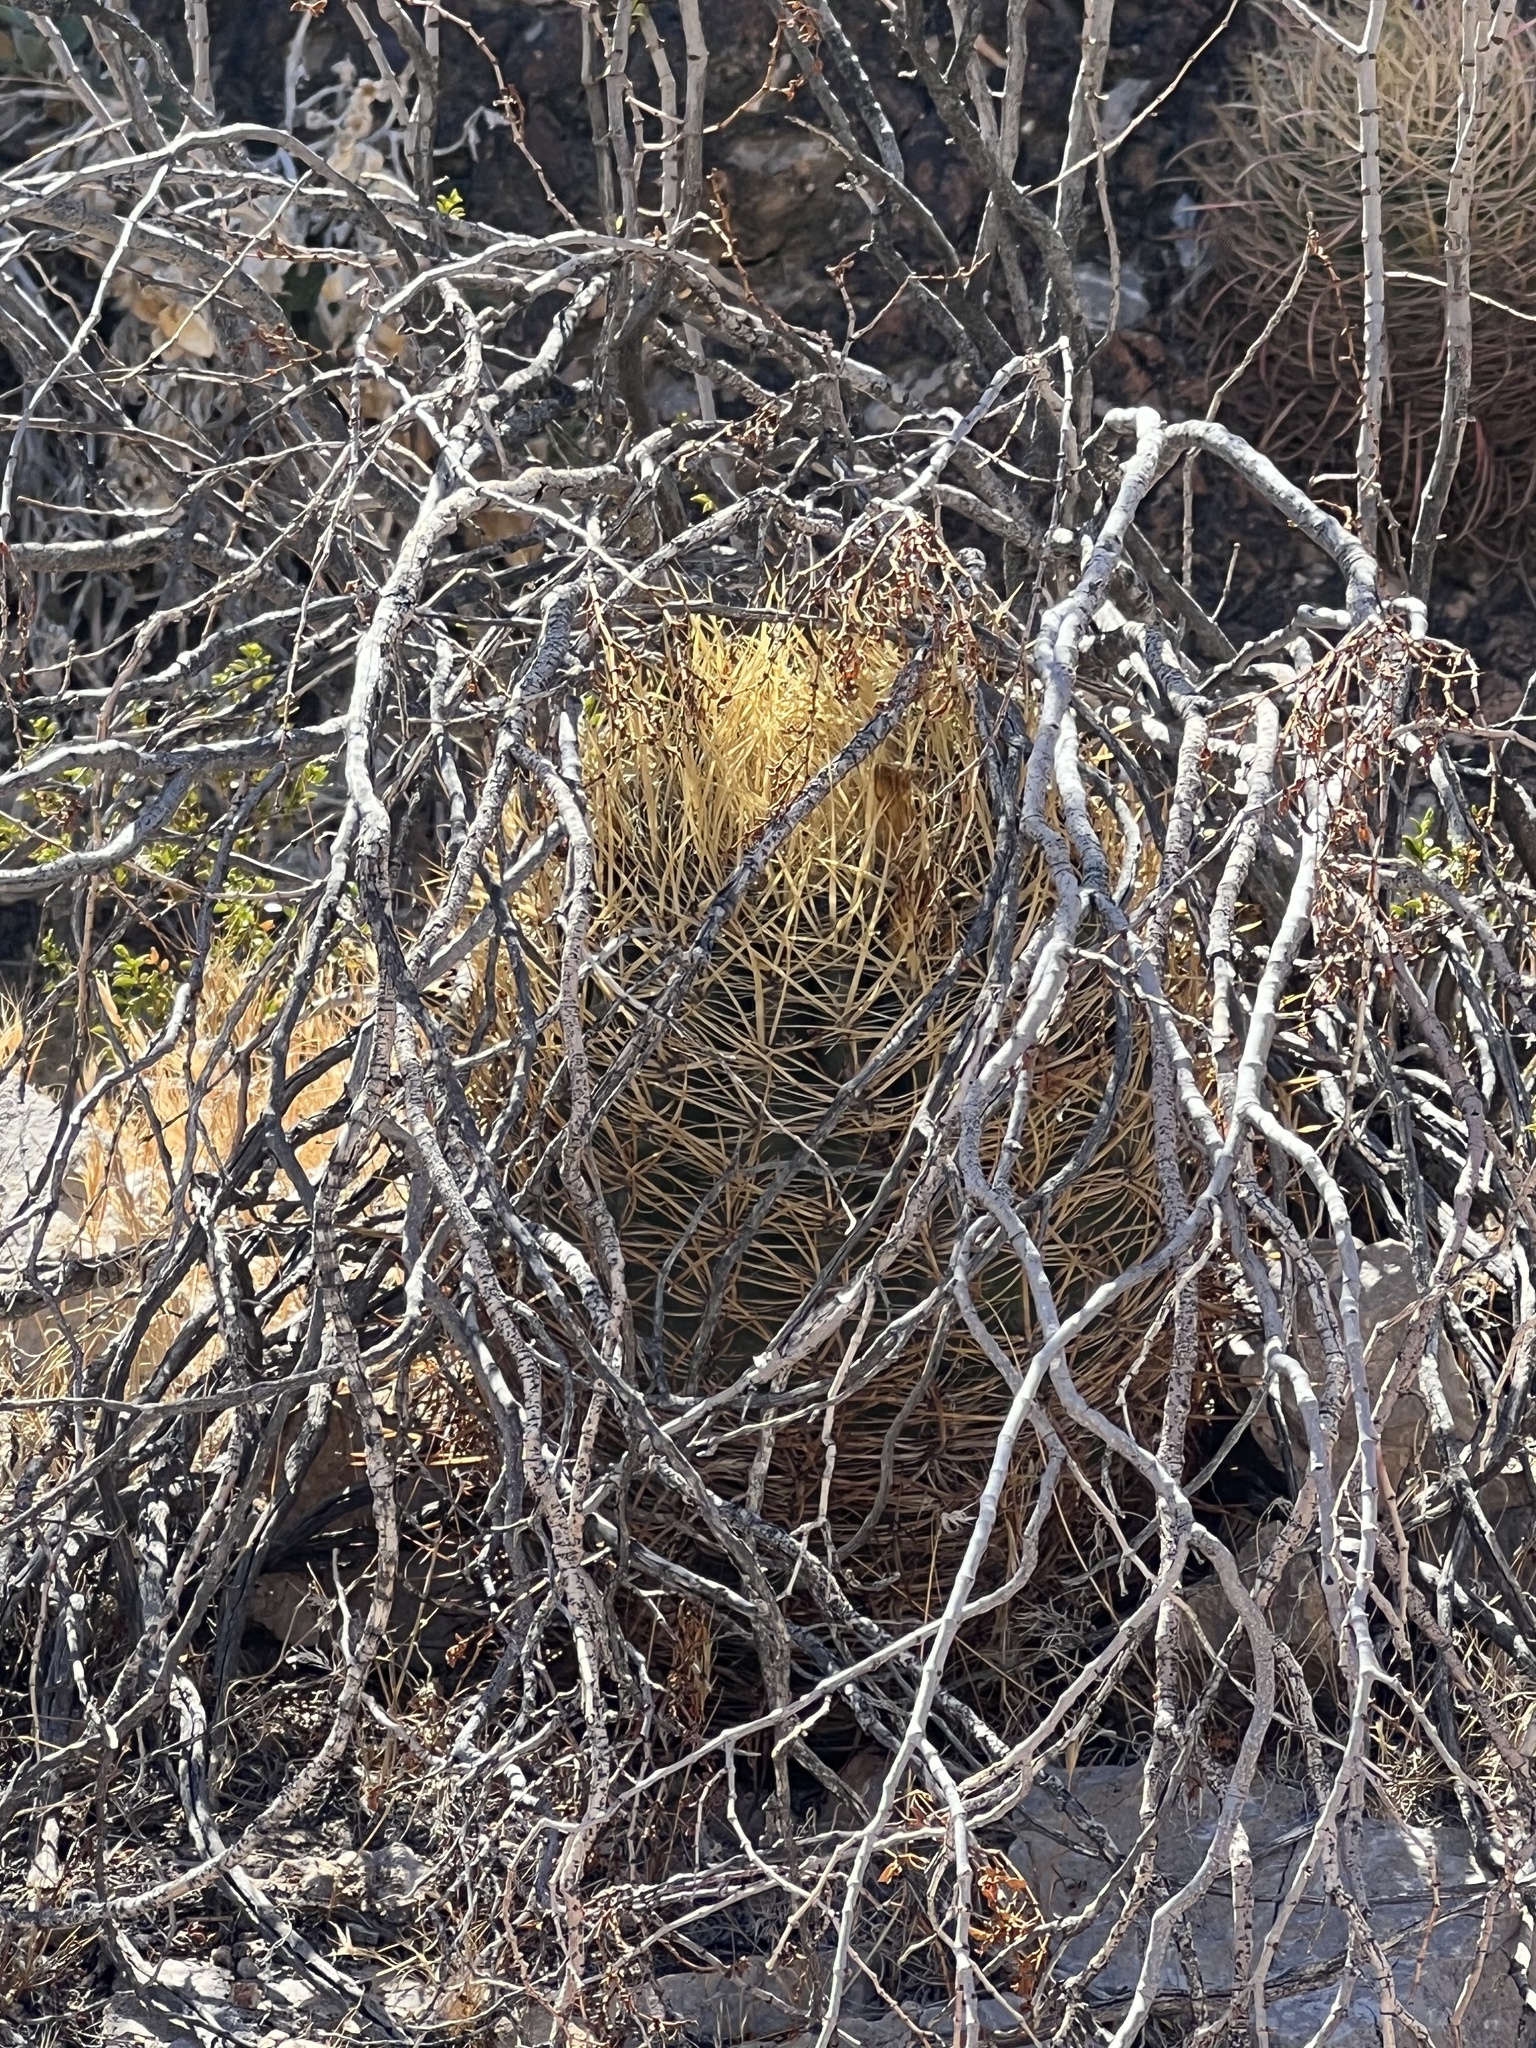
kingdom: Plantae
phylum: Tracheophyta
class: Magnoliopsida
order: Caryophyllales
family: Cactaceae
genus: Ferocactus
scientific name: Ferocactus cylindraceus
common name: California barrel cactus
